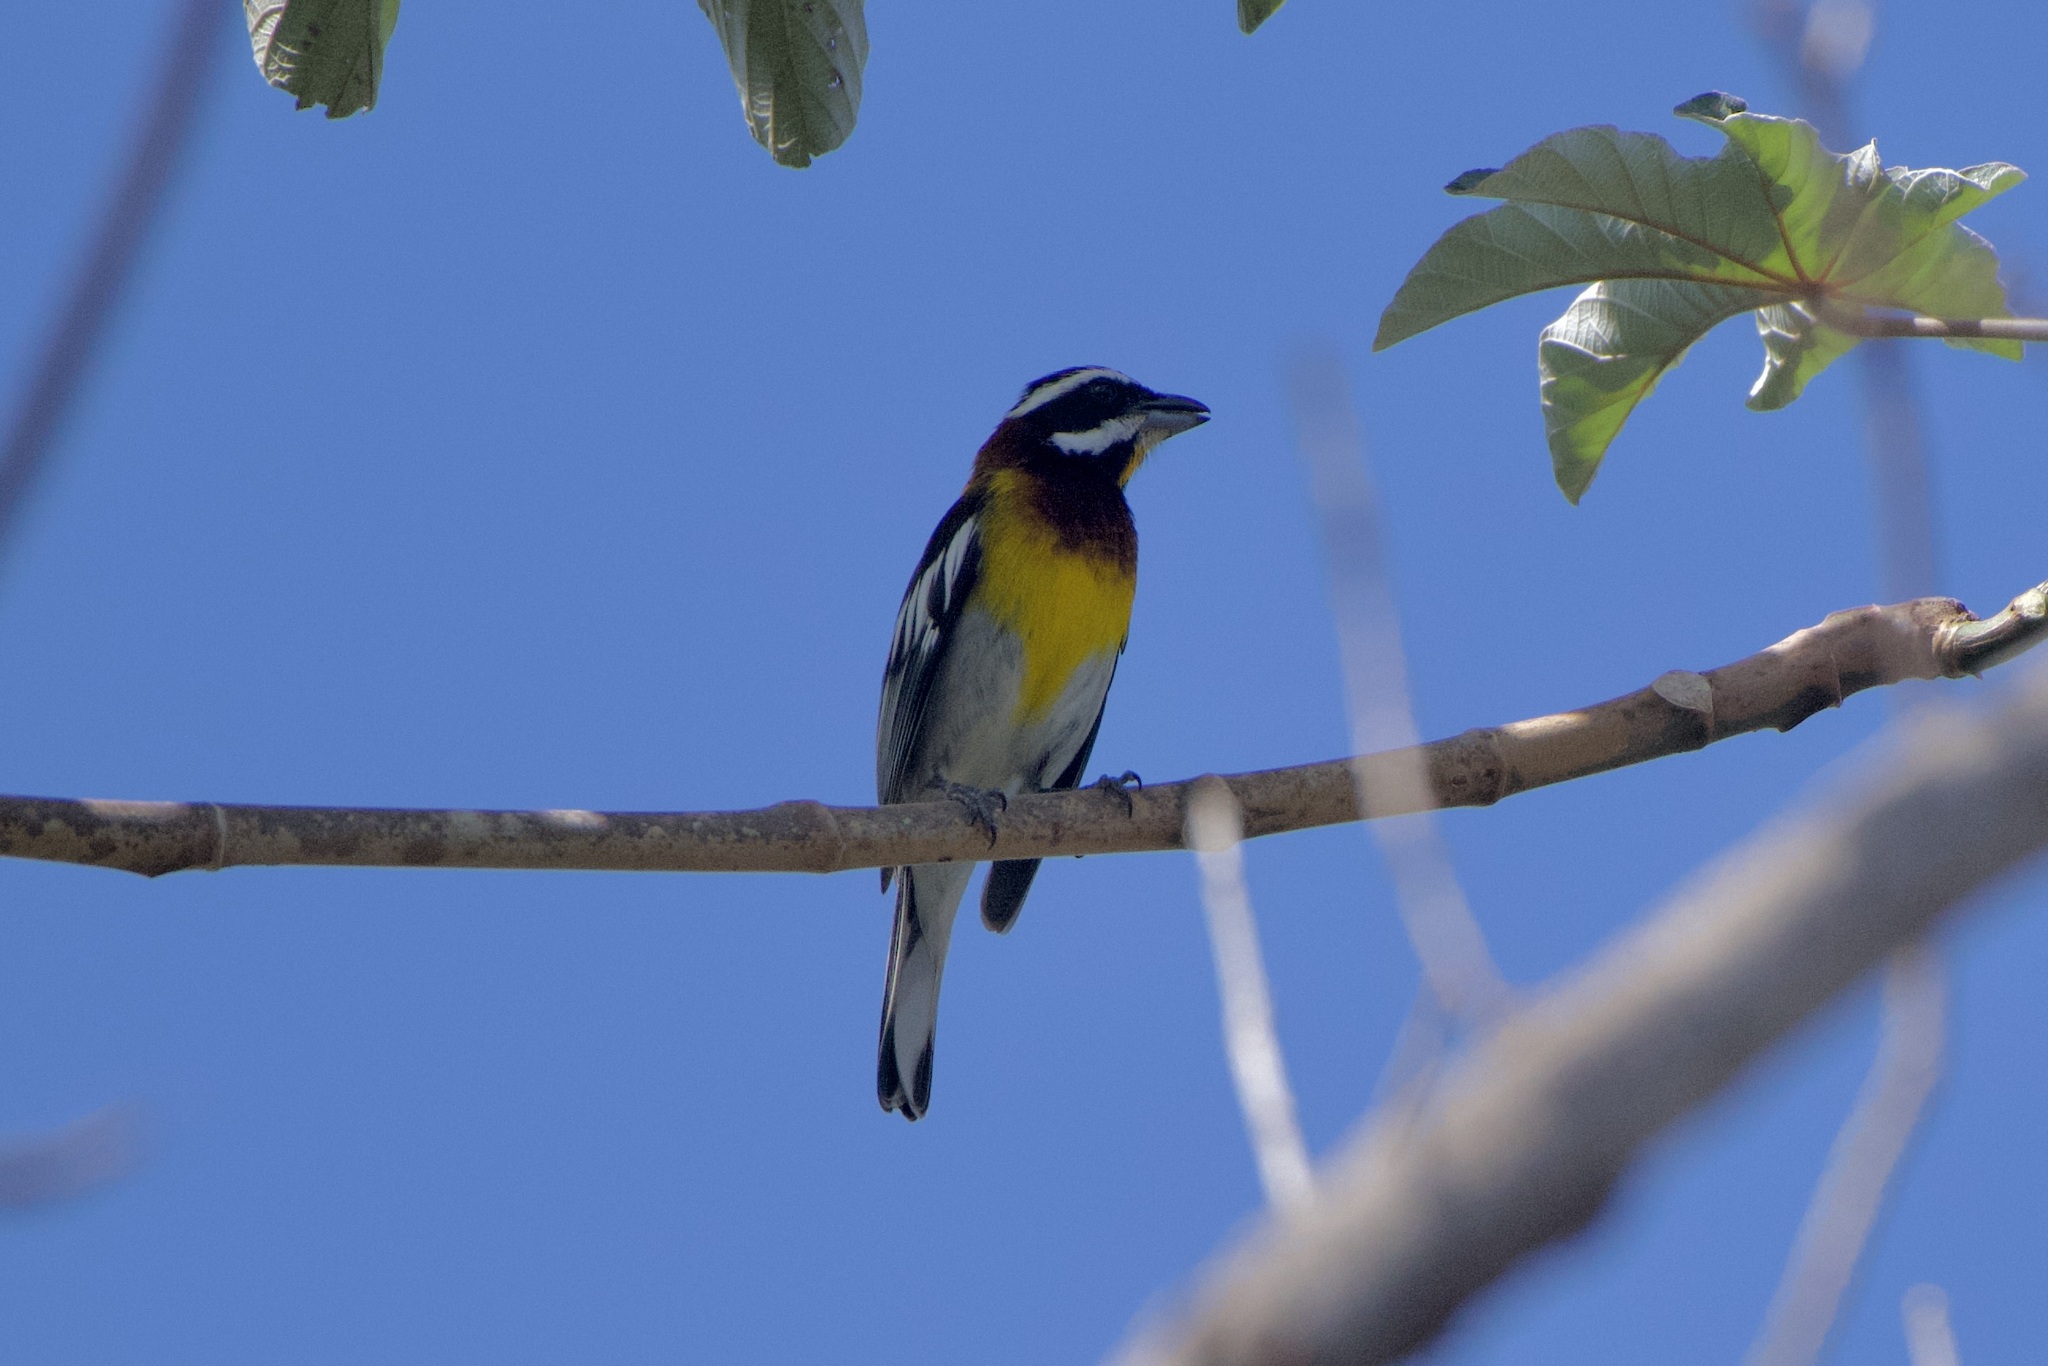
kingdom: Animalia
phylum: Chordata
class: Aves
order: Passeriformes
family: Spindalidae
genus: Spindalis
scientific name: Spindalis zena
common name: Western spindalis
